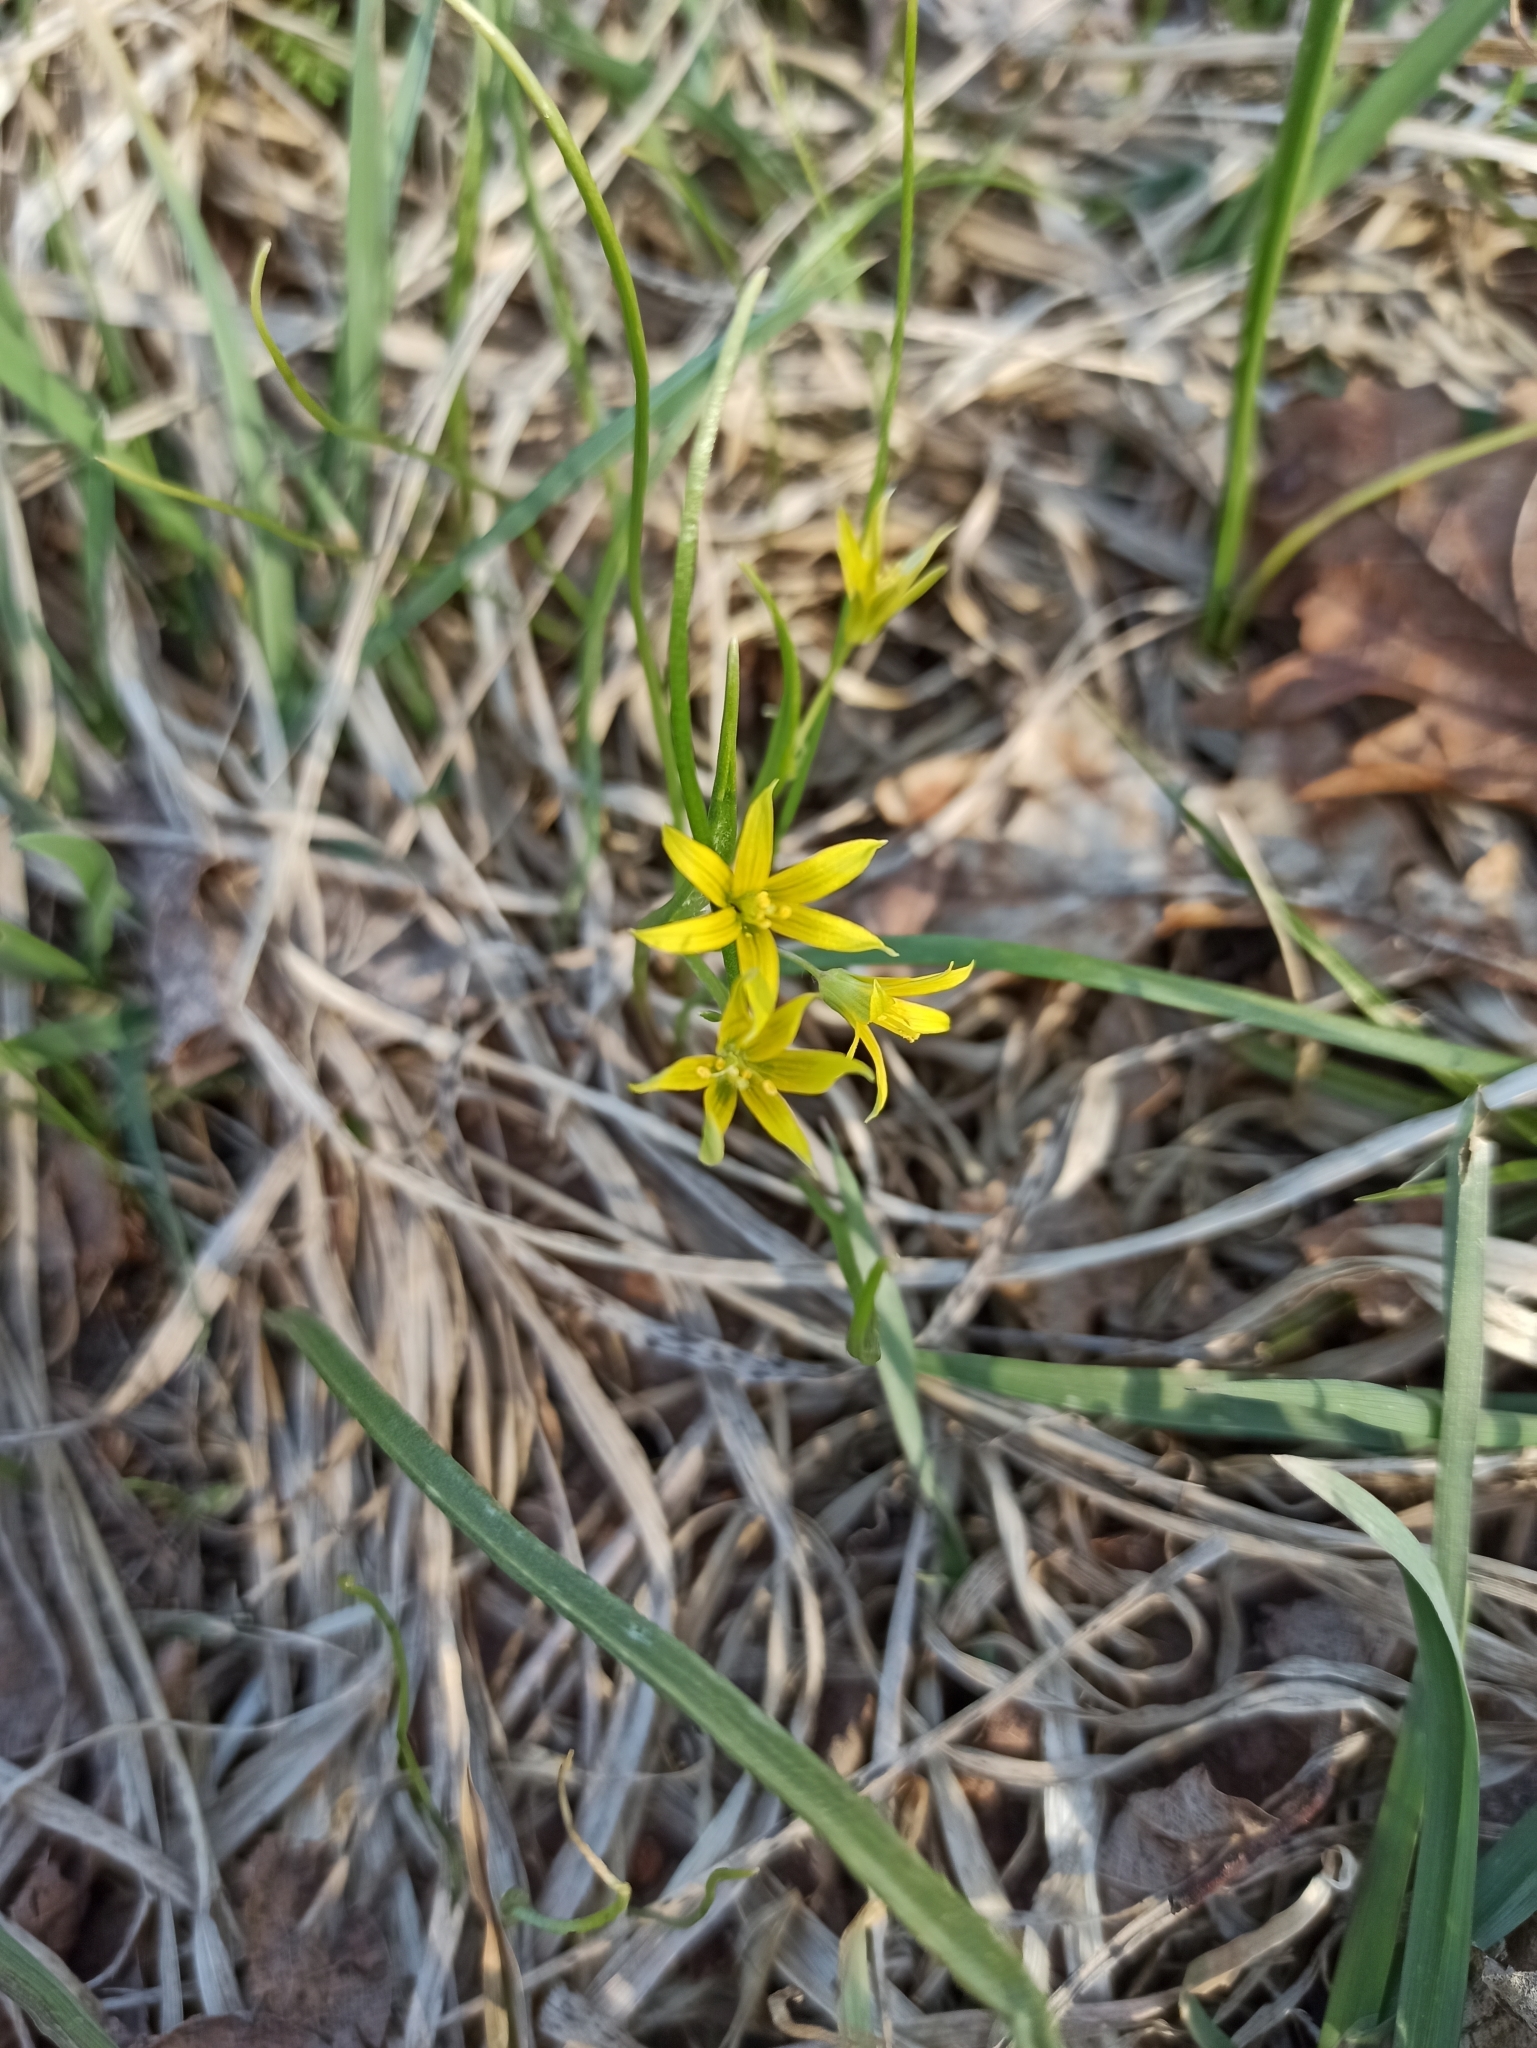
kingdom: Plantae
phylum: Tracheophyta
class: Liliopsida
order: Liliales
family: Liliaceae
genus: Gagea
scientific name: Gagea minima
